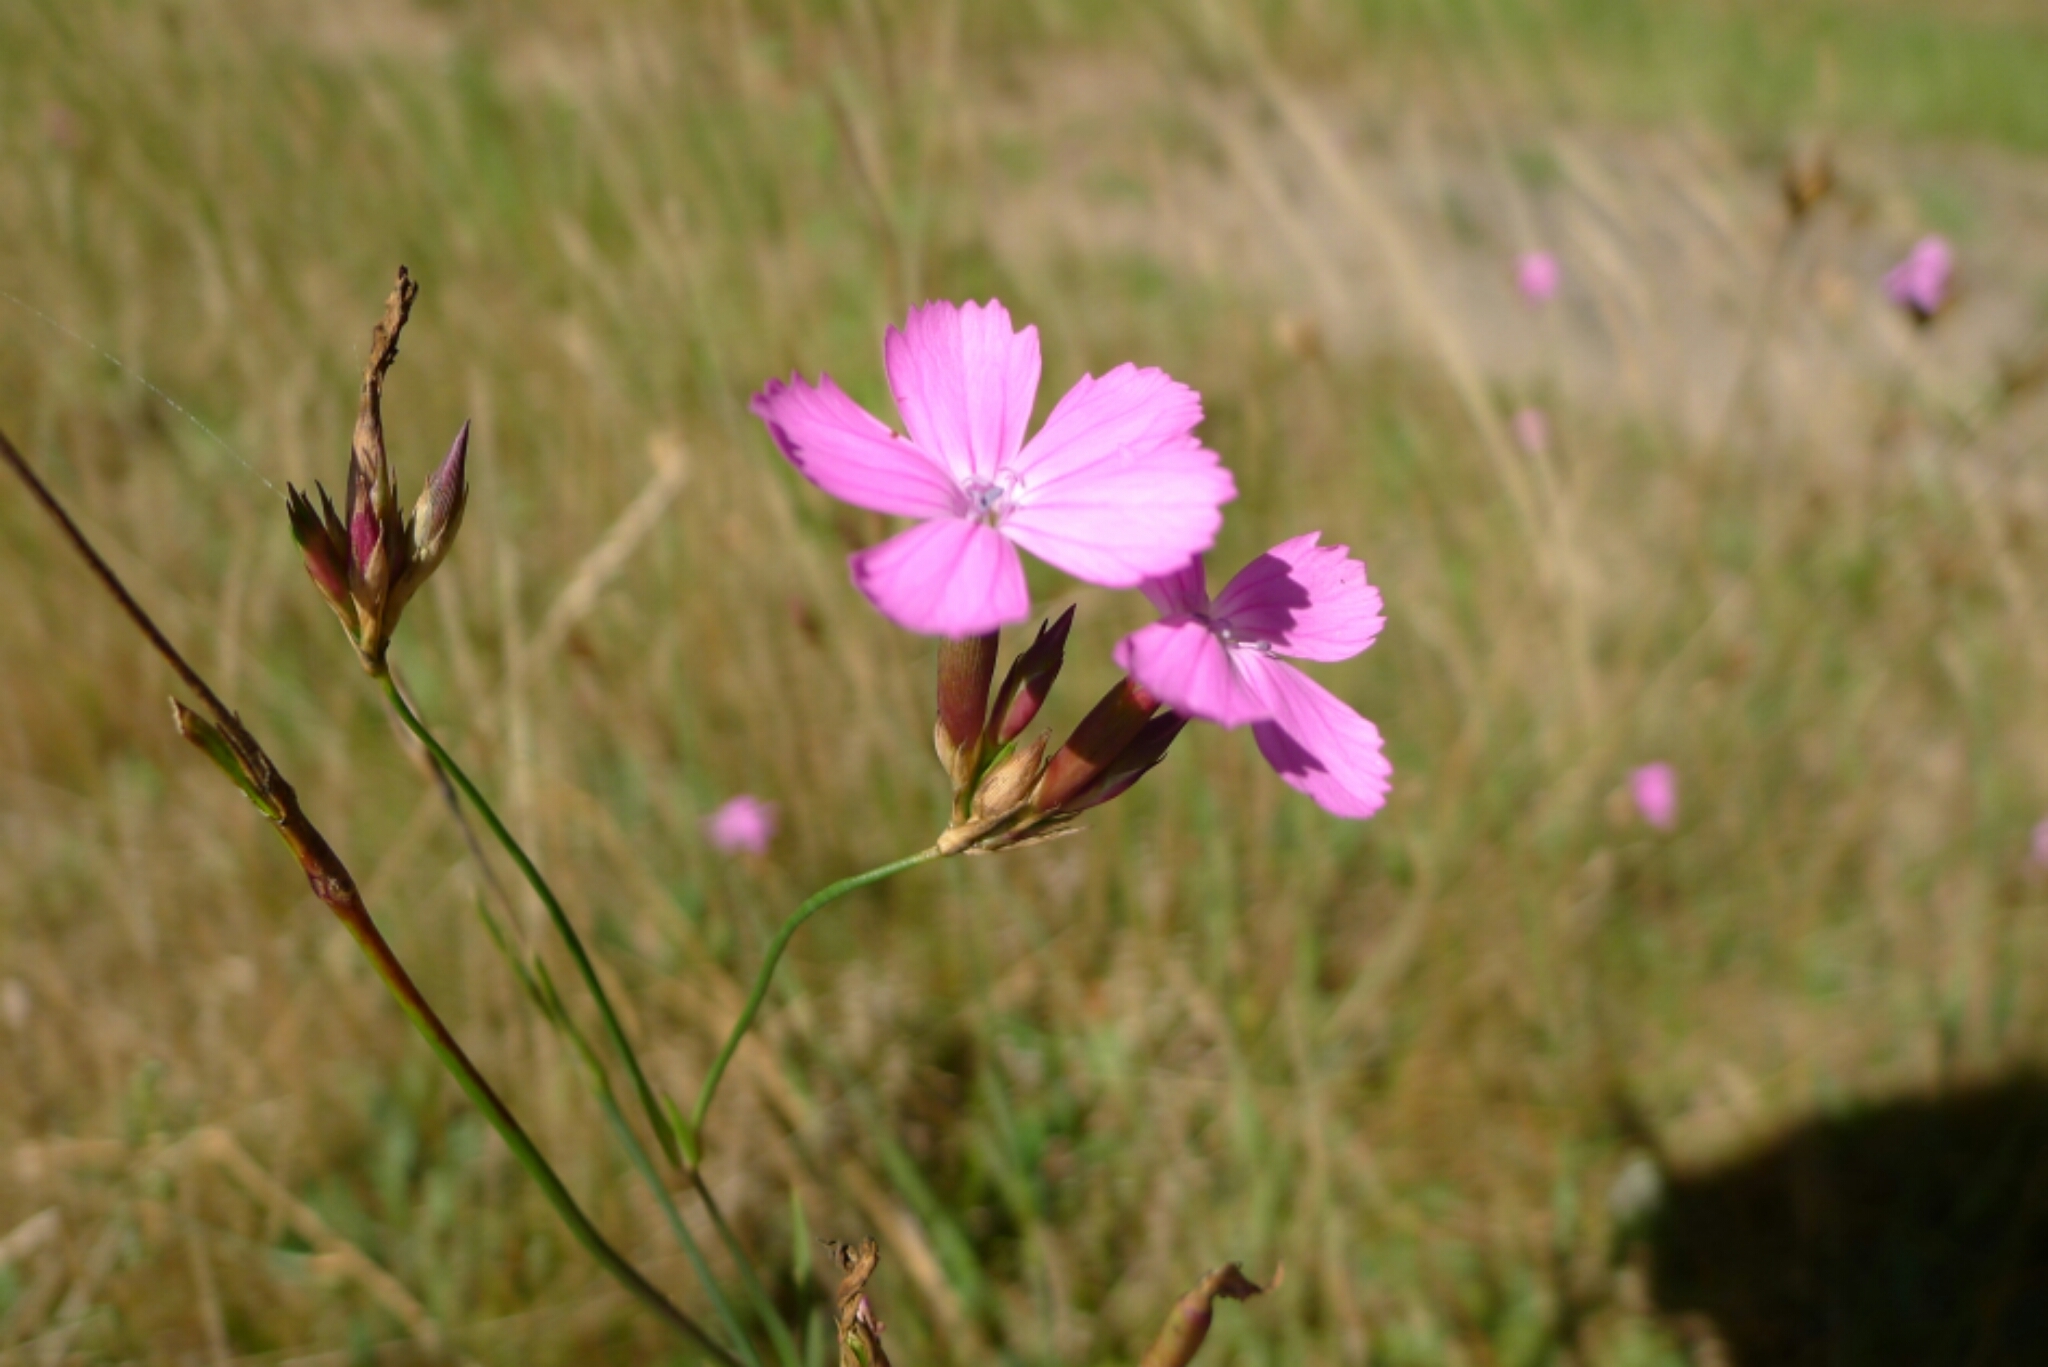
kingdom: Plantae
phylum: Tracheophyta
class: Magnoliopsida
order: Caryophyllales
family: Caryophyllaceae
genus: Dianthus
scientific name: Dianthus borbasii
